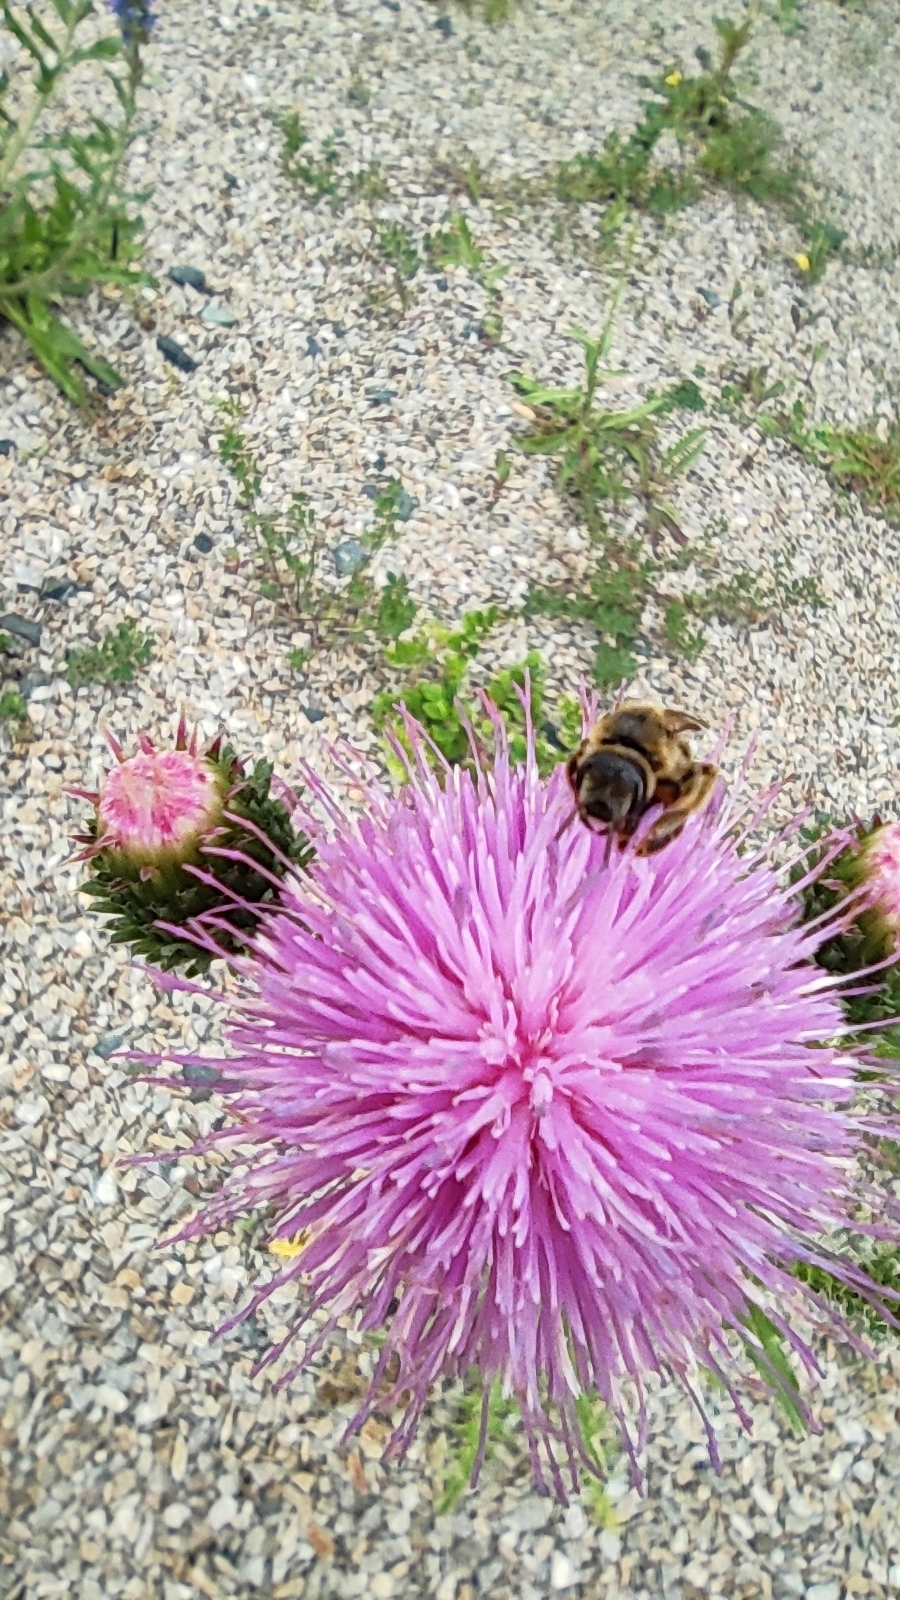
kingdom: Animalia
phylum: Arthropoda
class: Insecta
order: Hymenoptera
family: Halictidae
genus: Halictus
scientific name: Halictus scabiosae
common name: Great banded furrow bee
